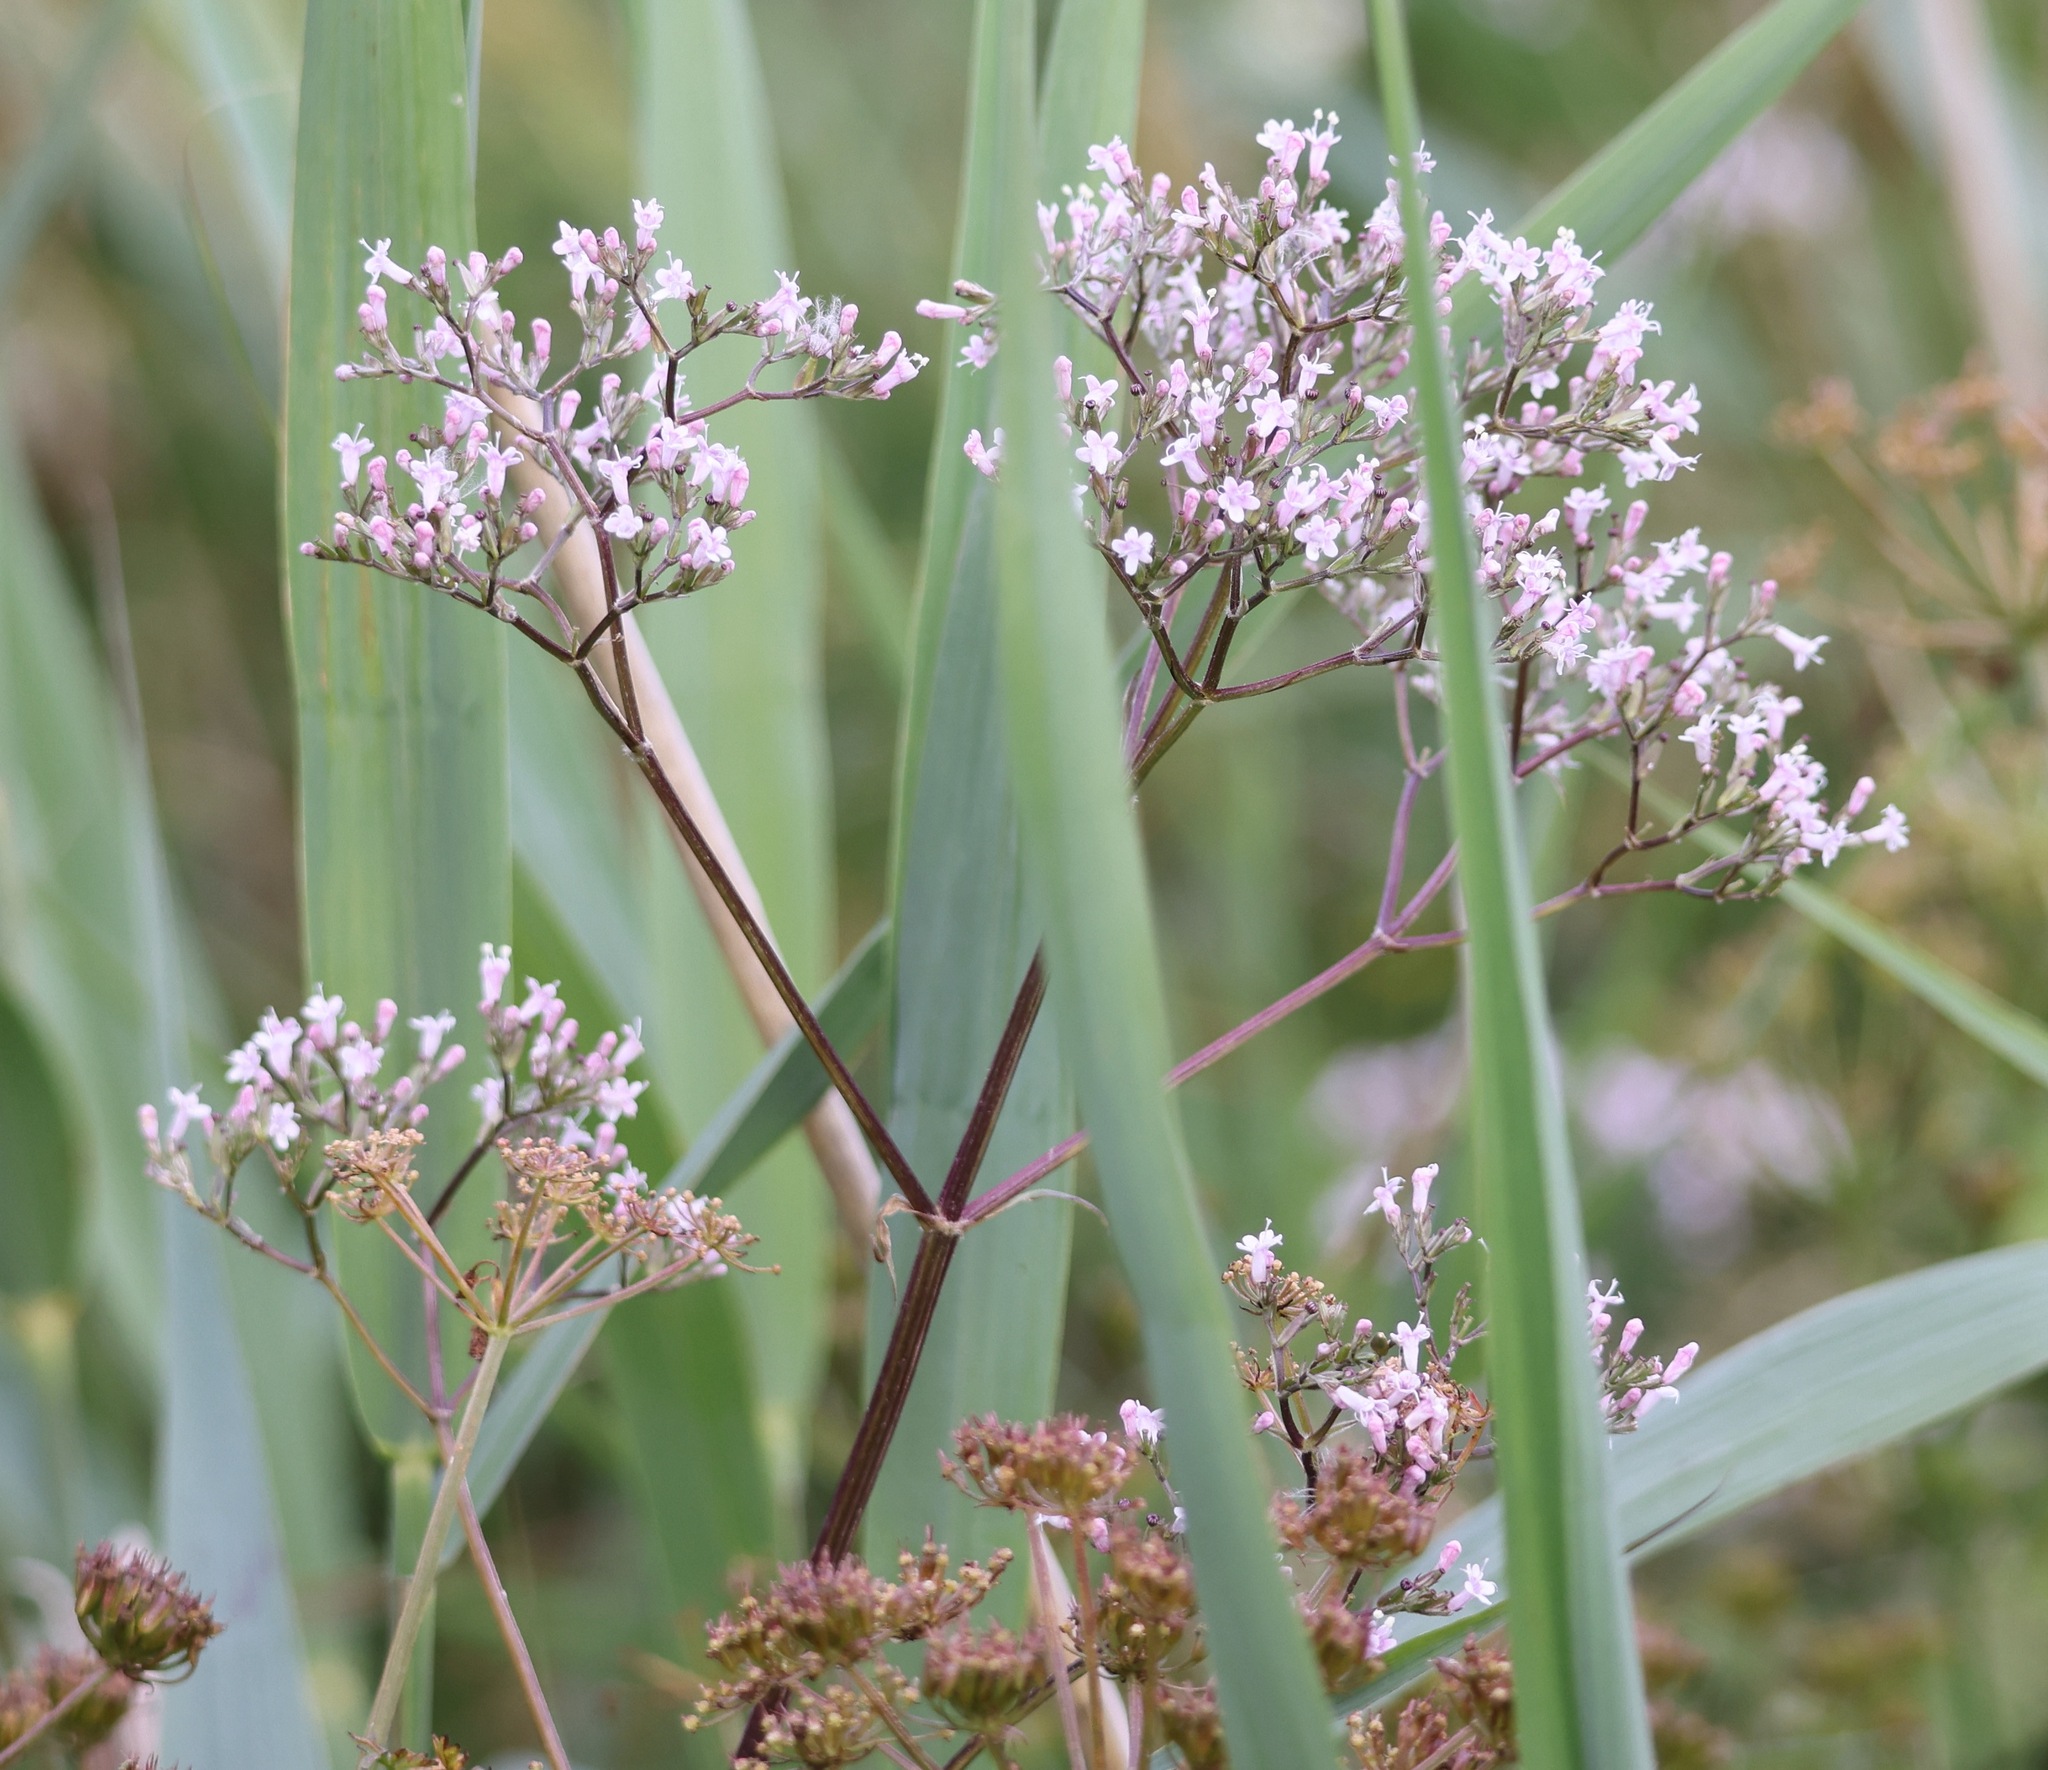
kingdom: Plantae
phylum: Tracheophyta
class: Magnoliopsida
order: Dipsacales
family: Caprifoliaceae
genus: Valeriana
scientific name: Valeriana officinalis
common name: Common valerian
